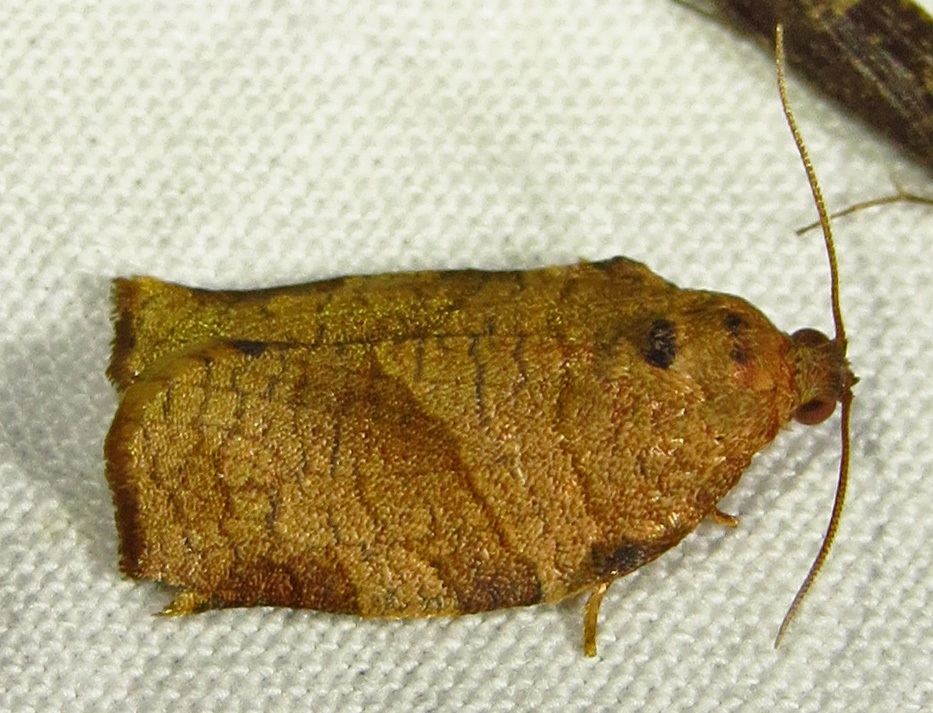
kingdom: Animalia
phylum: Arthropoda
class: Insecta
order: Lepidoptera
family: Tortricidae
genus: Choristoneura
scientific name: Choristoneura rosaceana
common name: Oblique-banded leafroller moth
